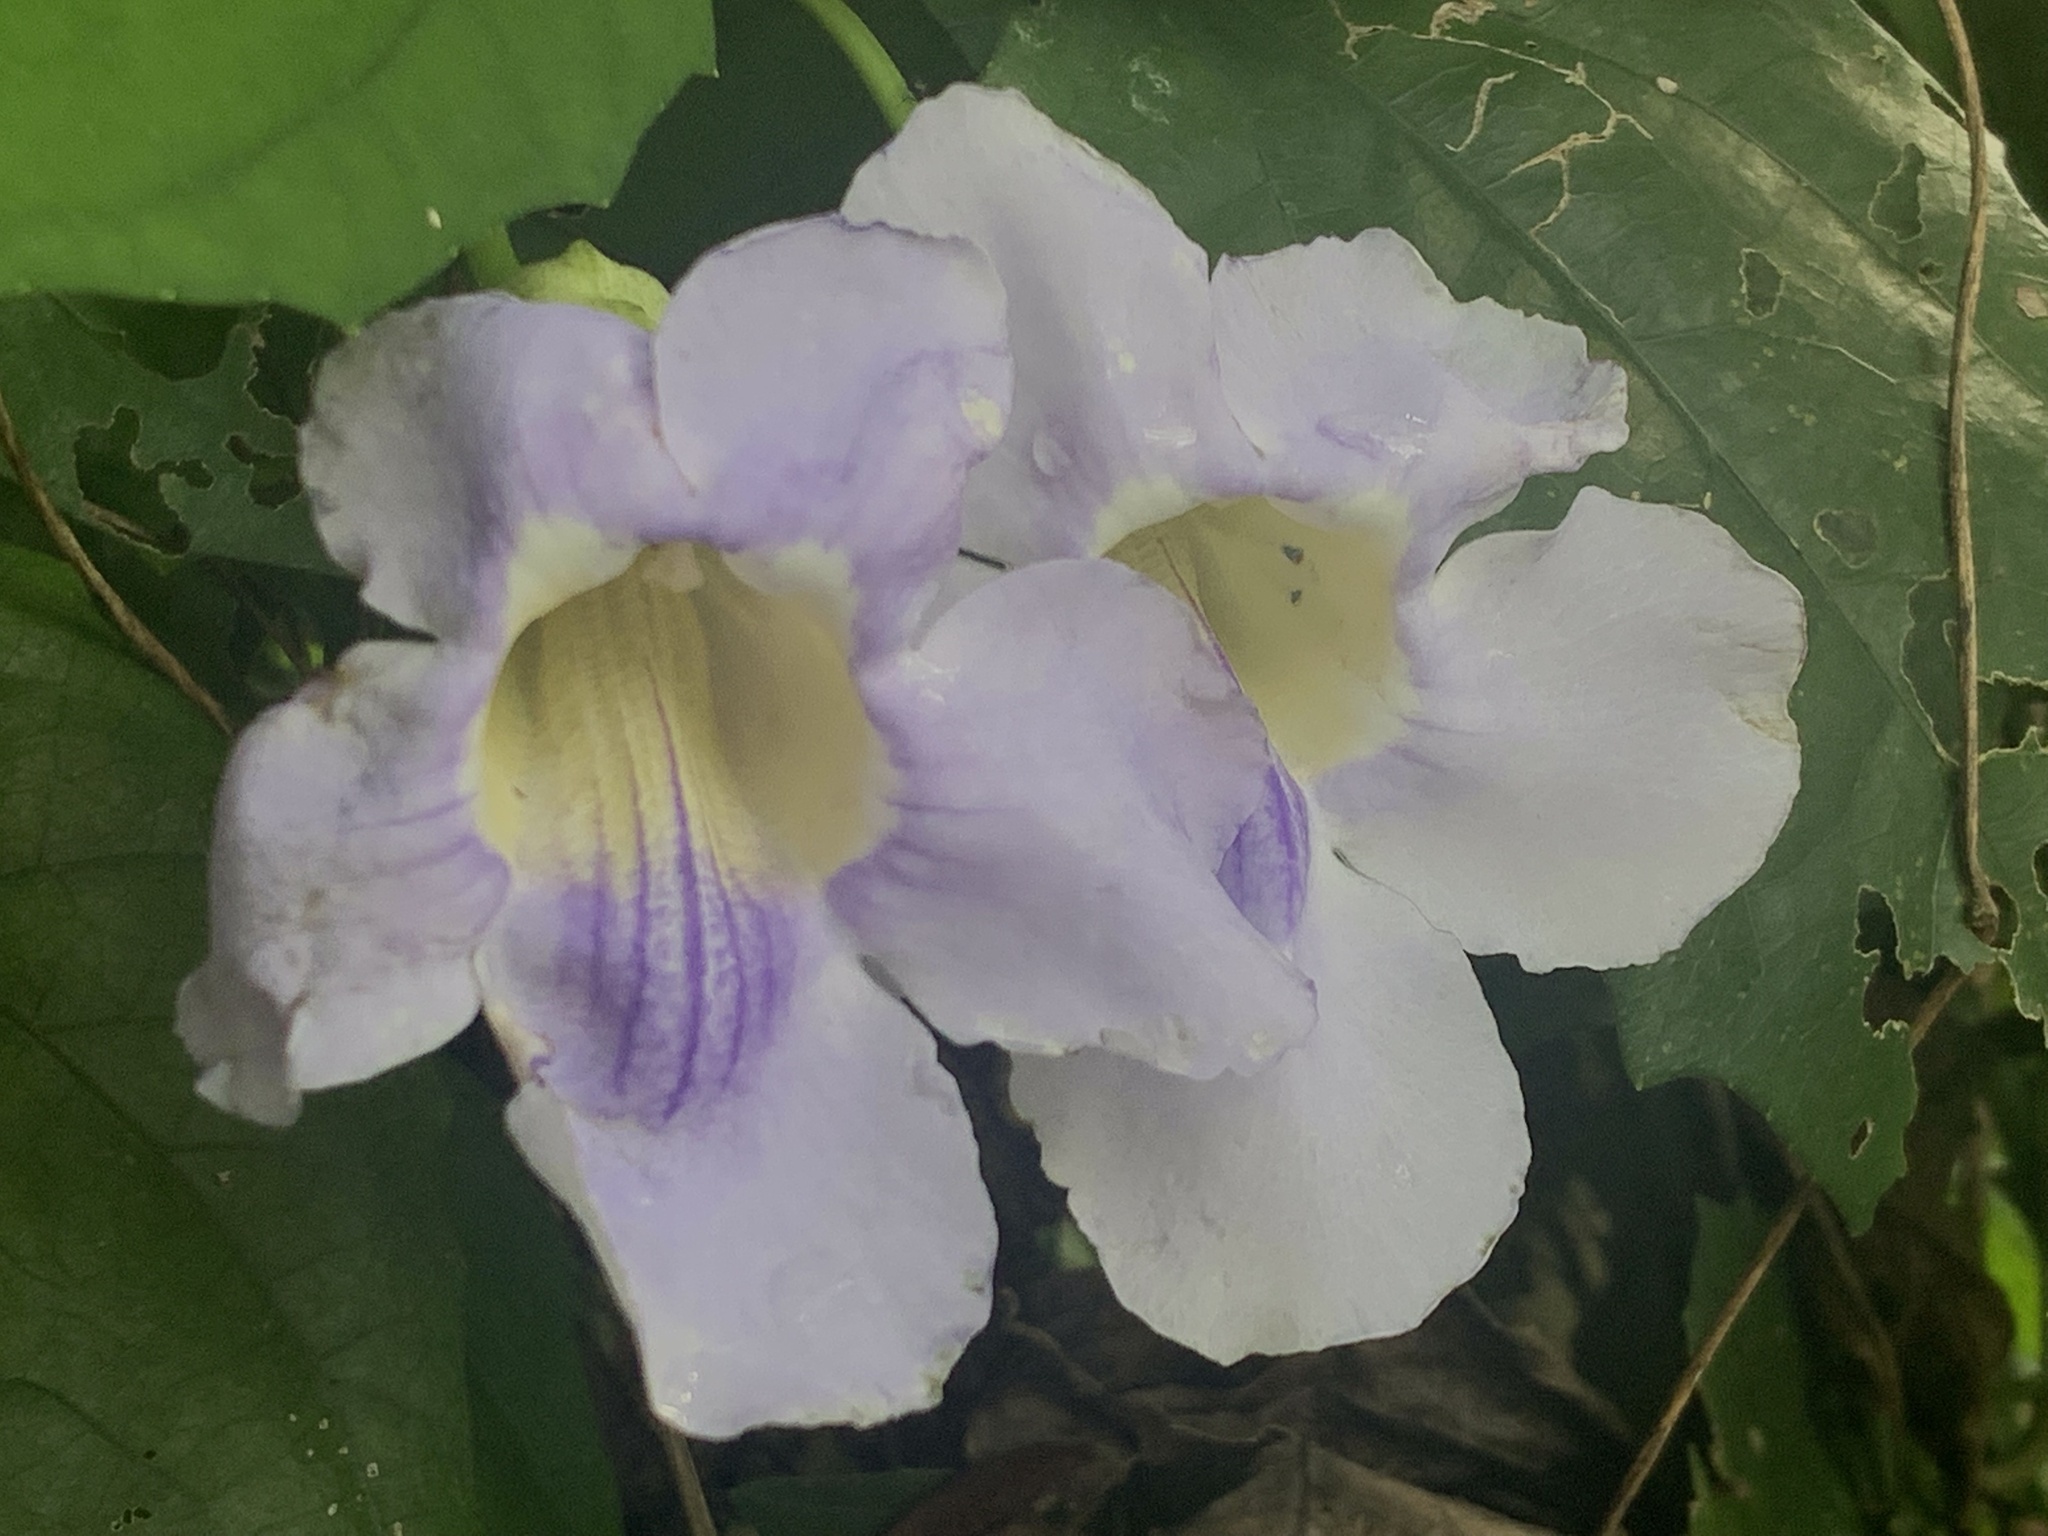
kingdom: Plantae
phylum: Tracheophyta
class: Magnoliopsida
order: Lamiales
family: Acanthaceae
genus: Thunbergia
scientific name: Thunbergia laurifolia
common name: Laurel-leaved thunbergia
